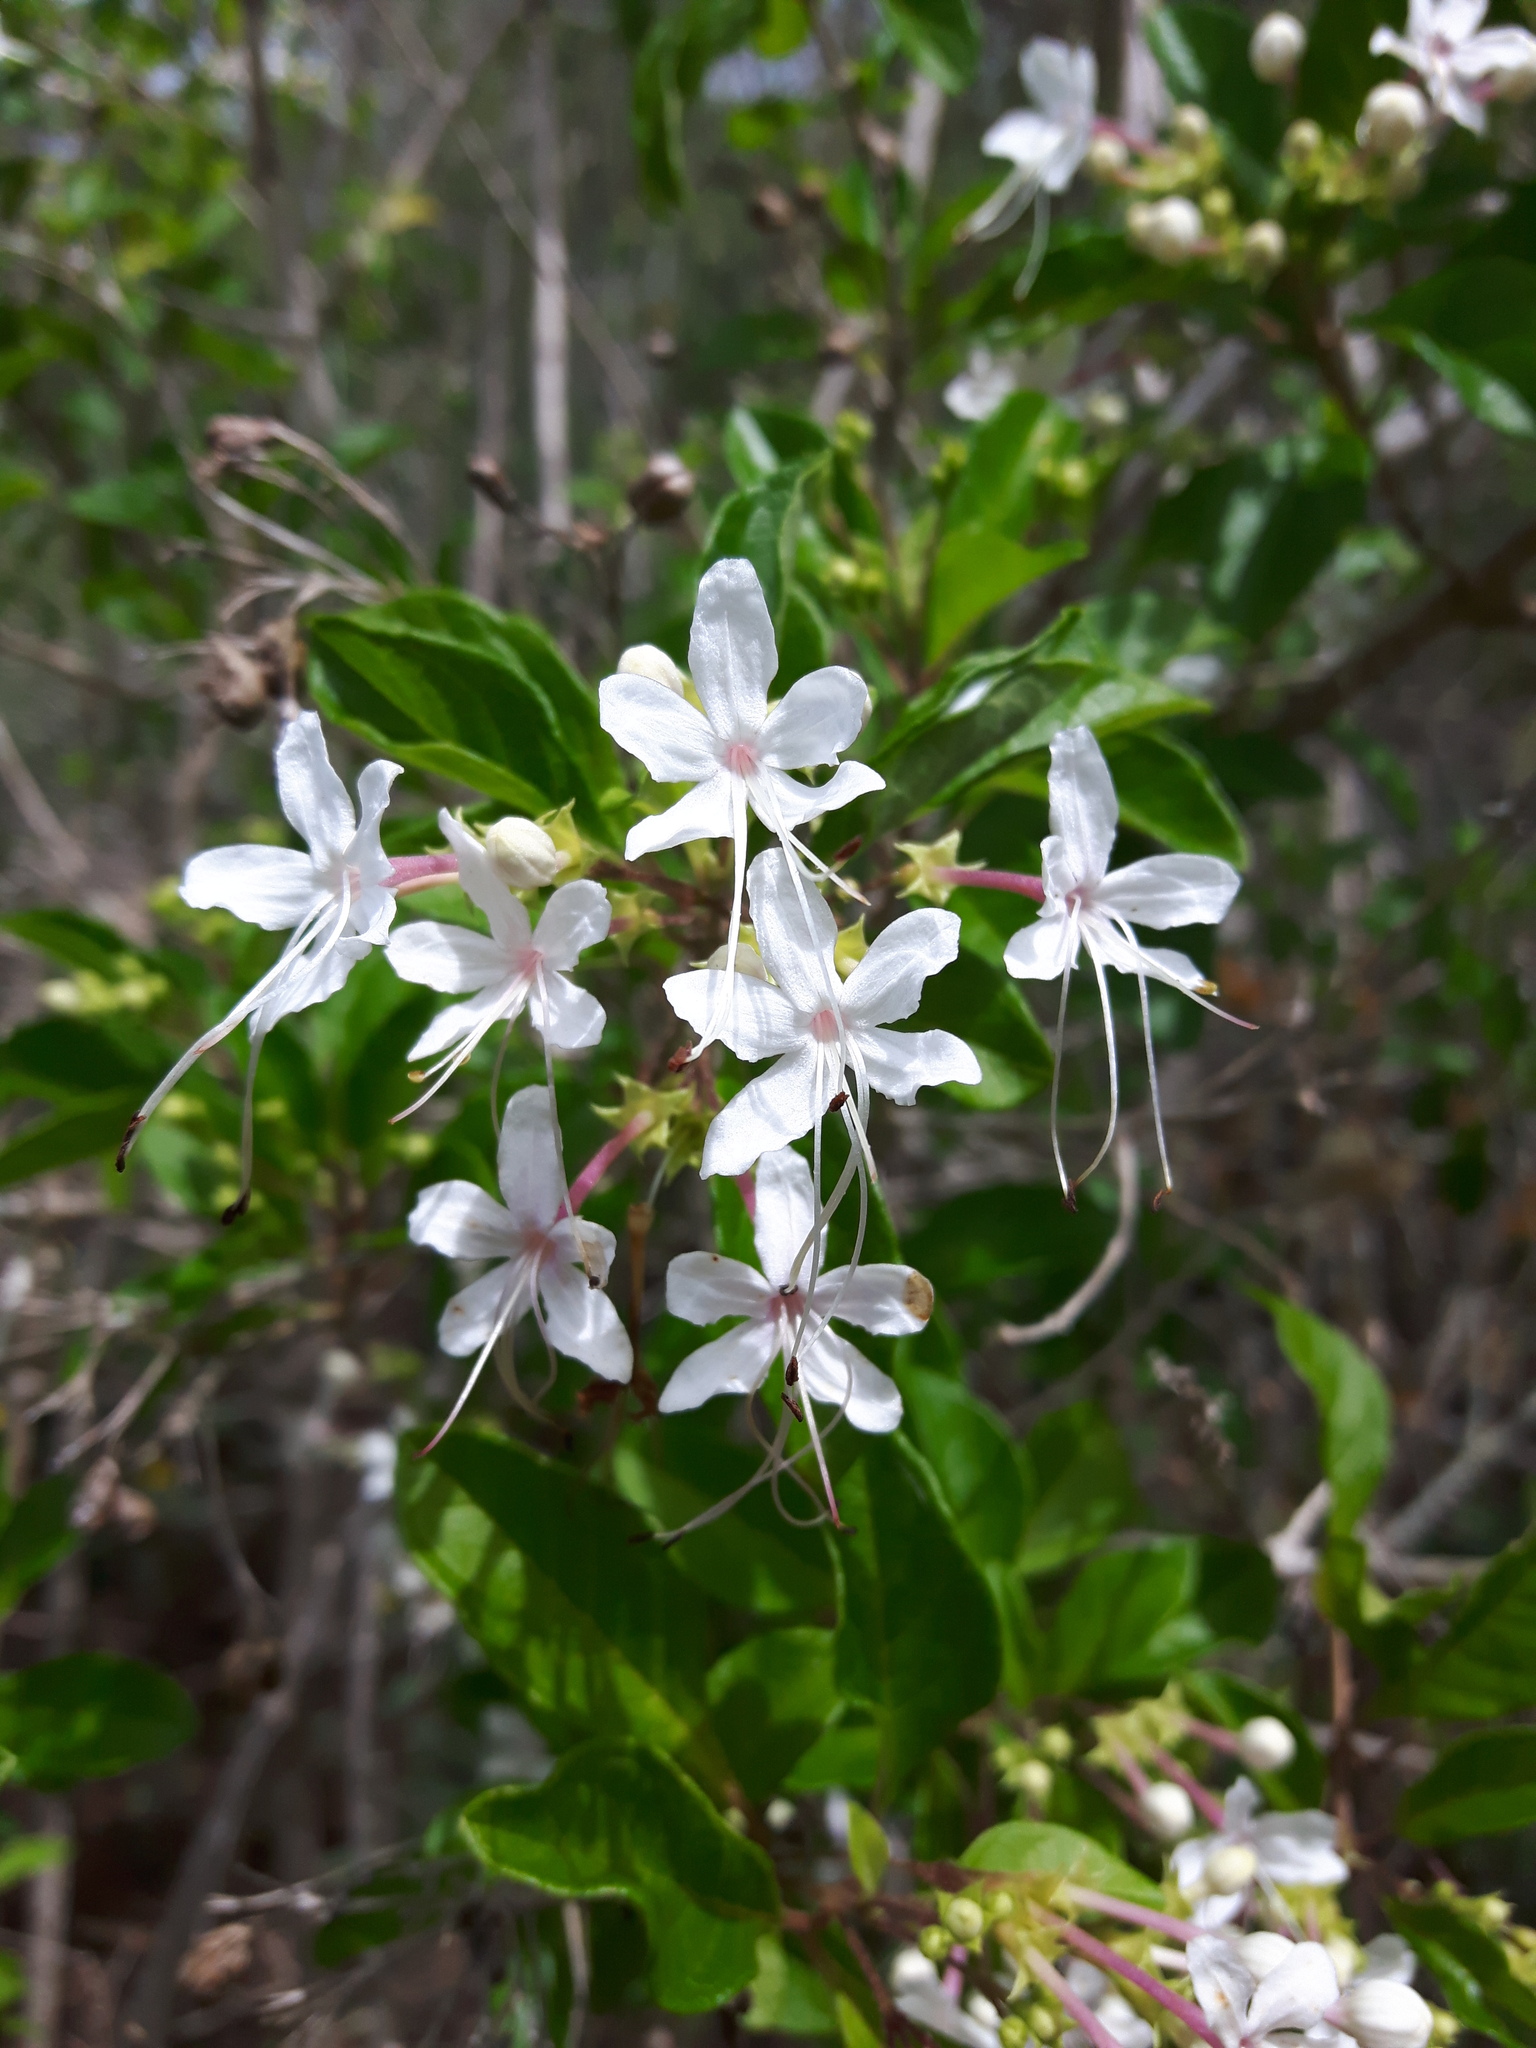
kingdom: Plantae
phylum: Tracheophyta
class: Magnoliopsida
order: Lamiales
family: Lamiaceae
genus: Volkameria
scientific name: Volkameria mollis
